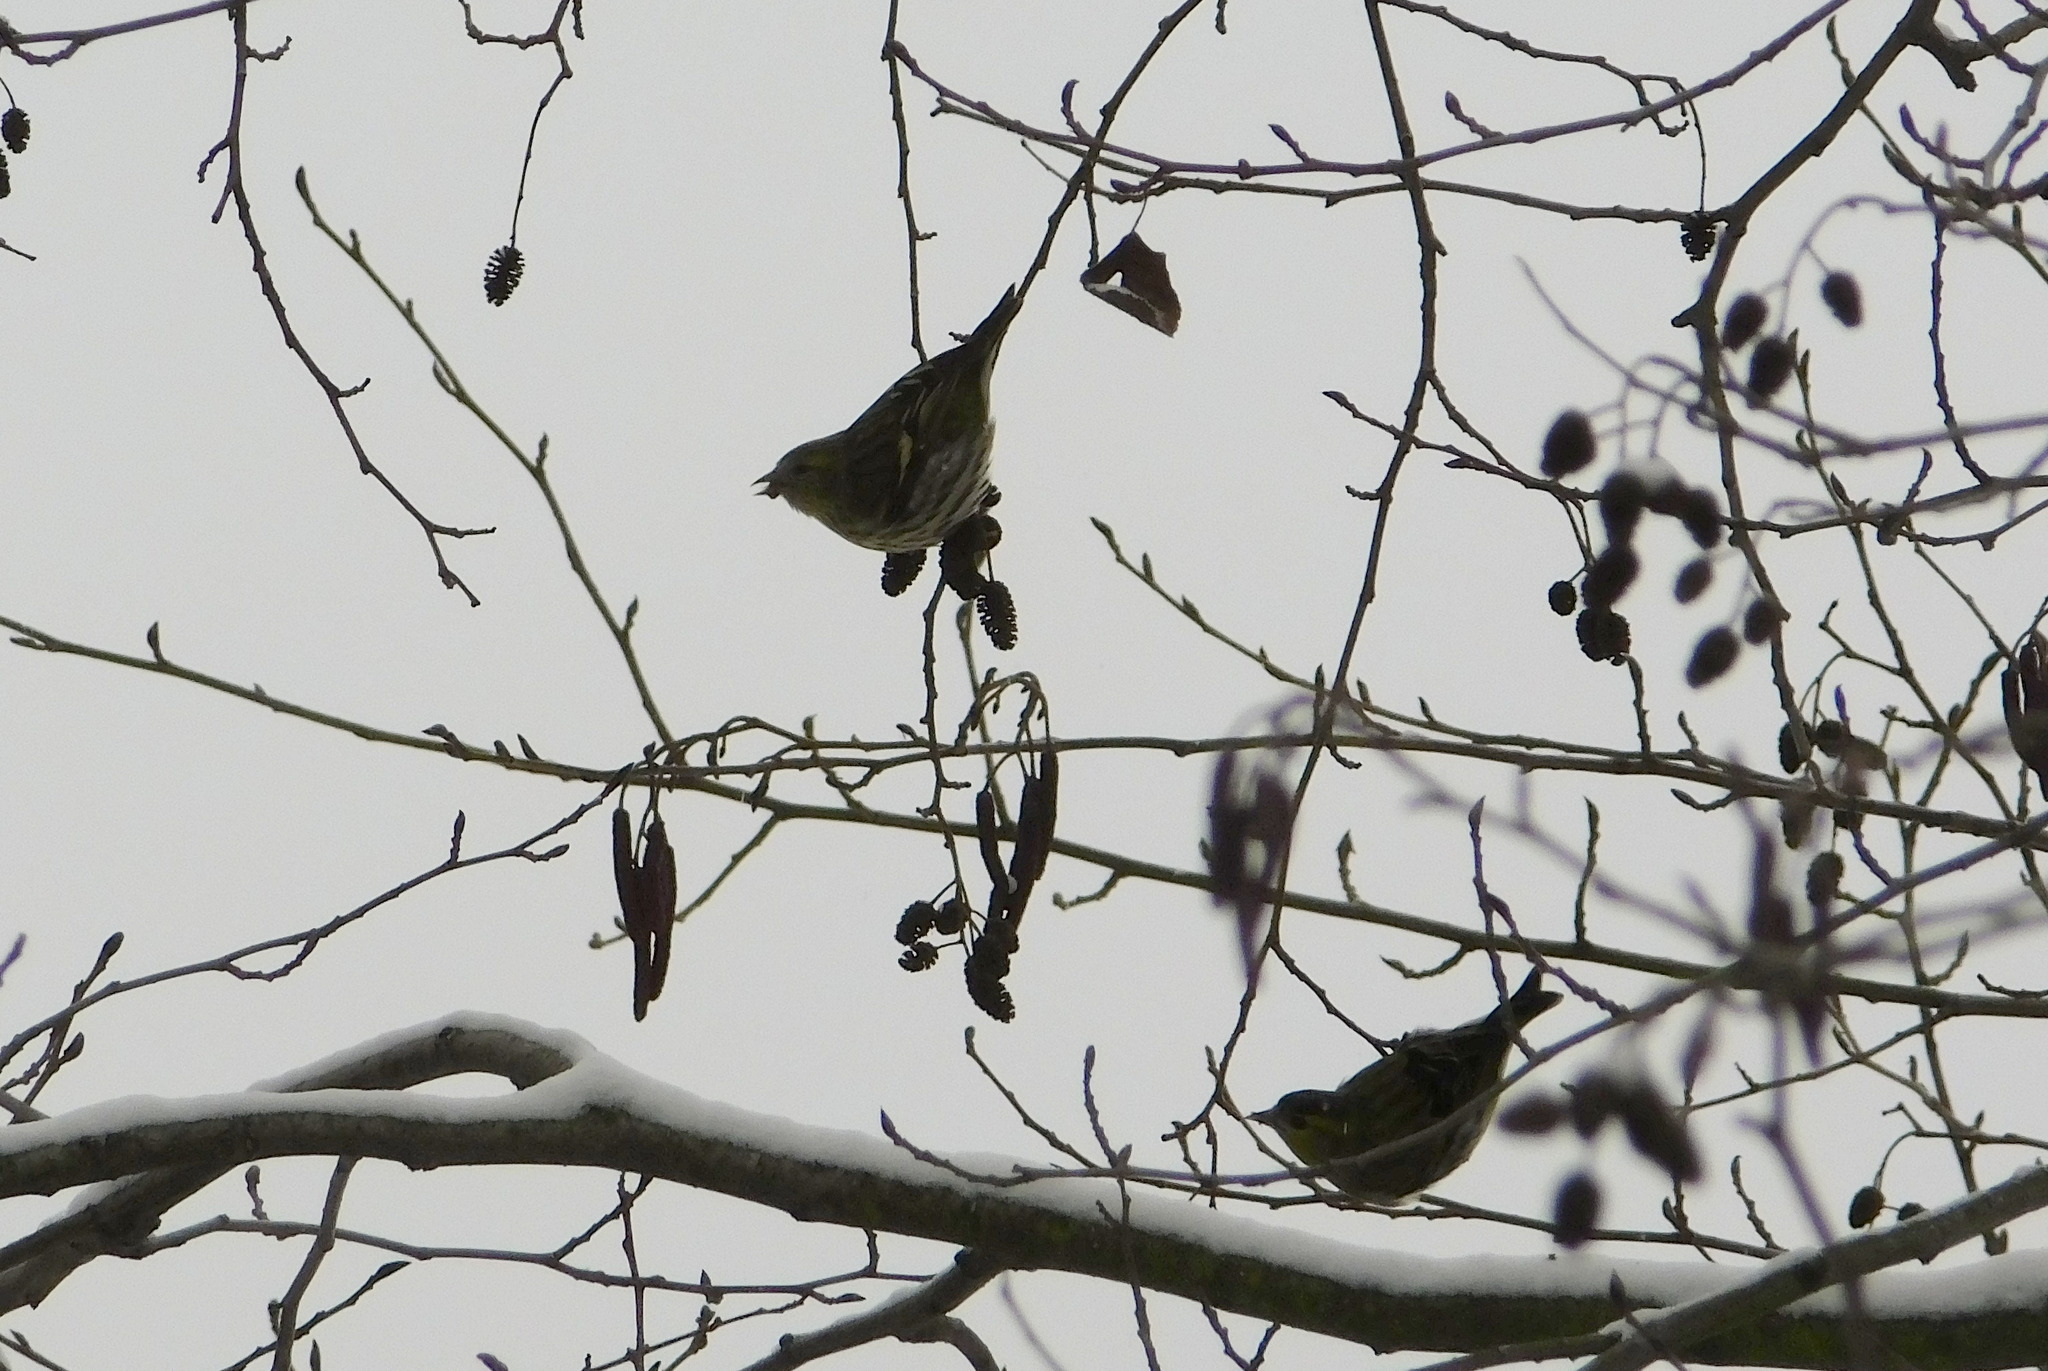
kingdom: Animalia
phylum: Chordata
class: Aves
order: Passeriformes
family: Fringillidae
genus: Spinus
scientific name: Spinus spinus
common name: Eurasian siskin
